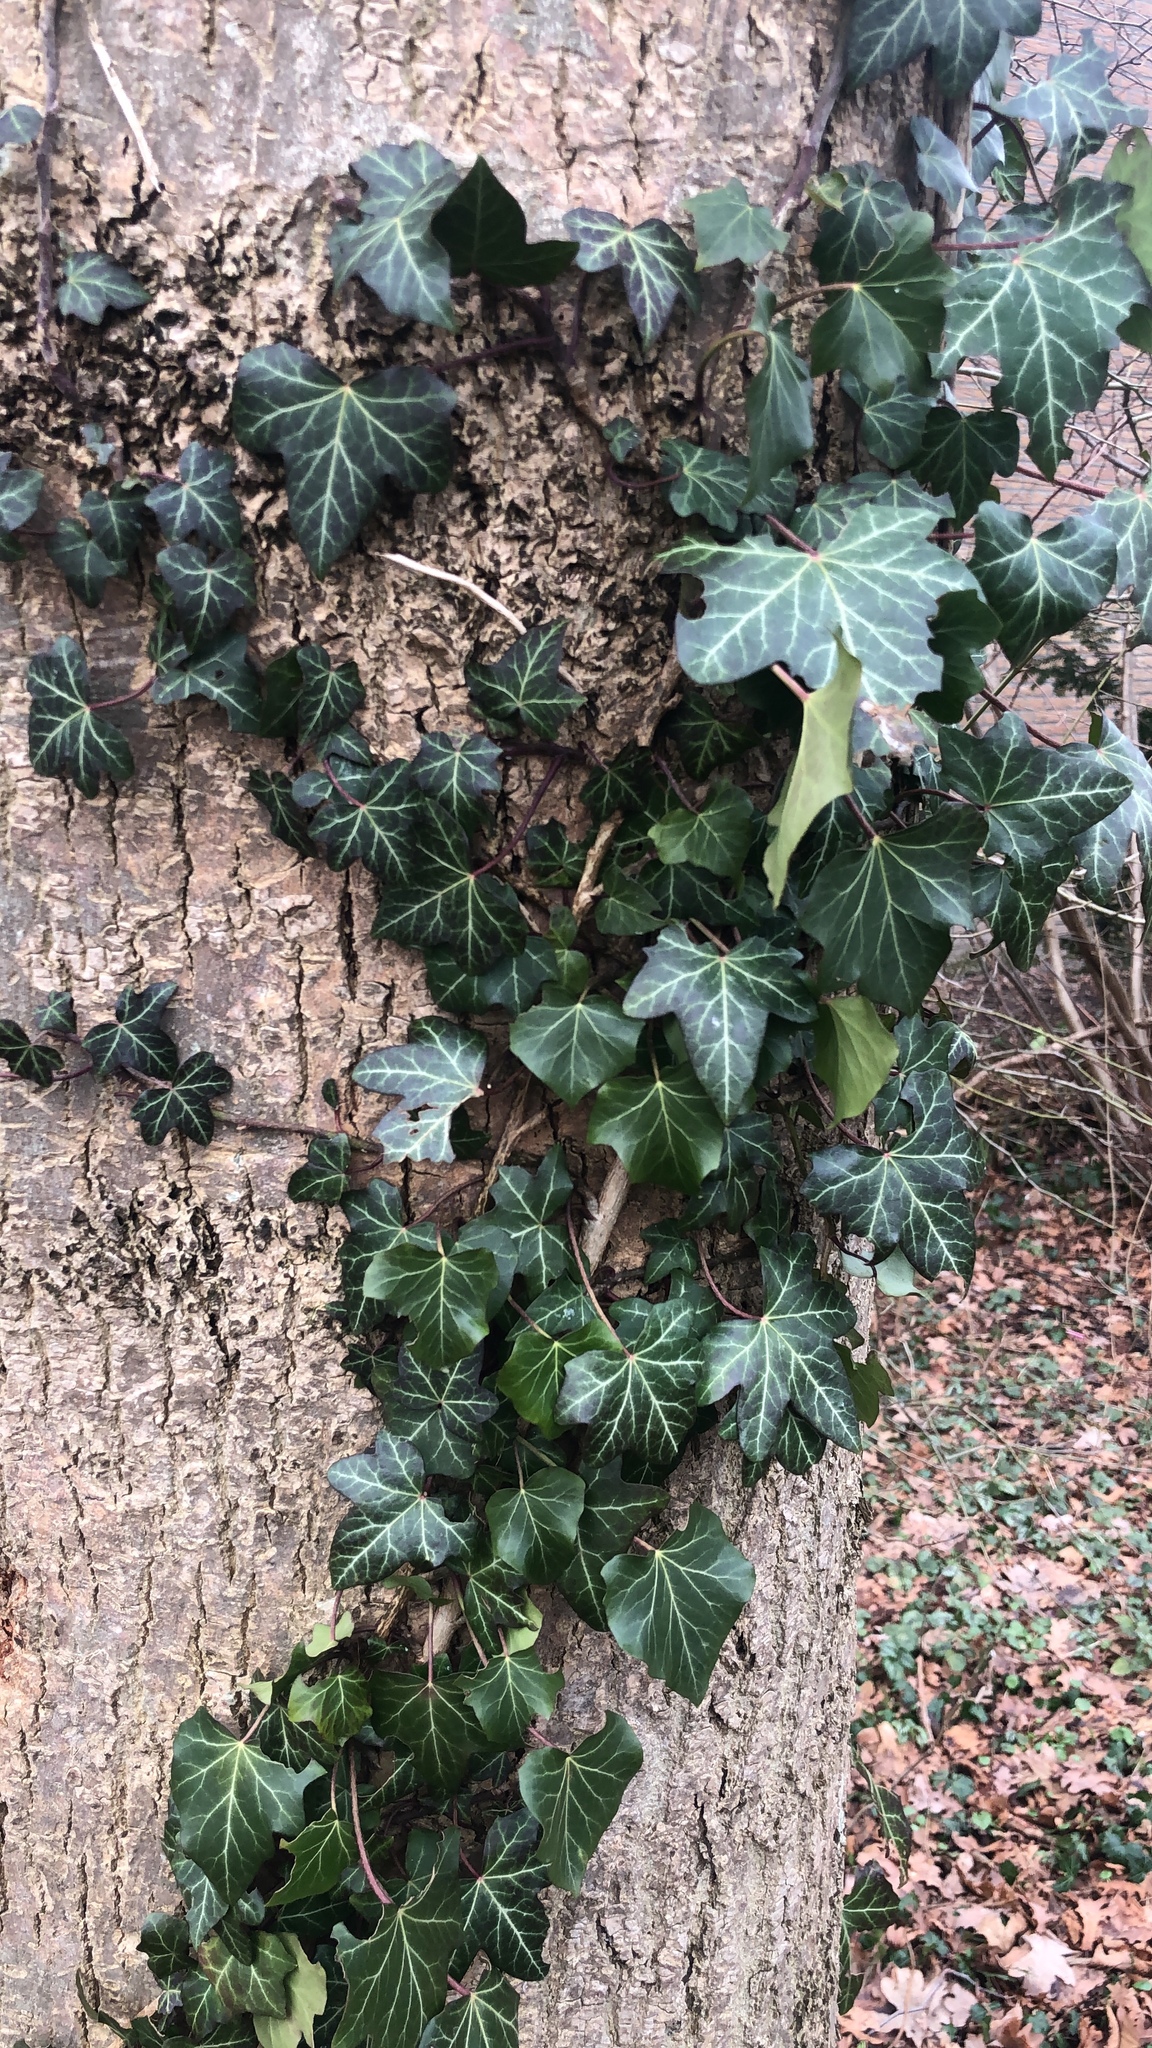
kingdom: Plantae
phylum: Tracheophyta
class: Magnoliopsida
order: Apiales
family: Araliaceae
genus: Hedera
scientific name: Hedera helix
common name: Ivy
